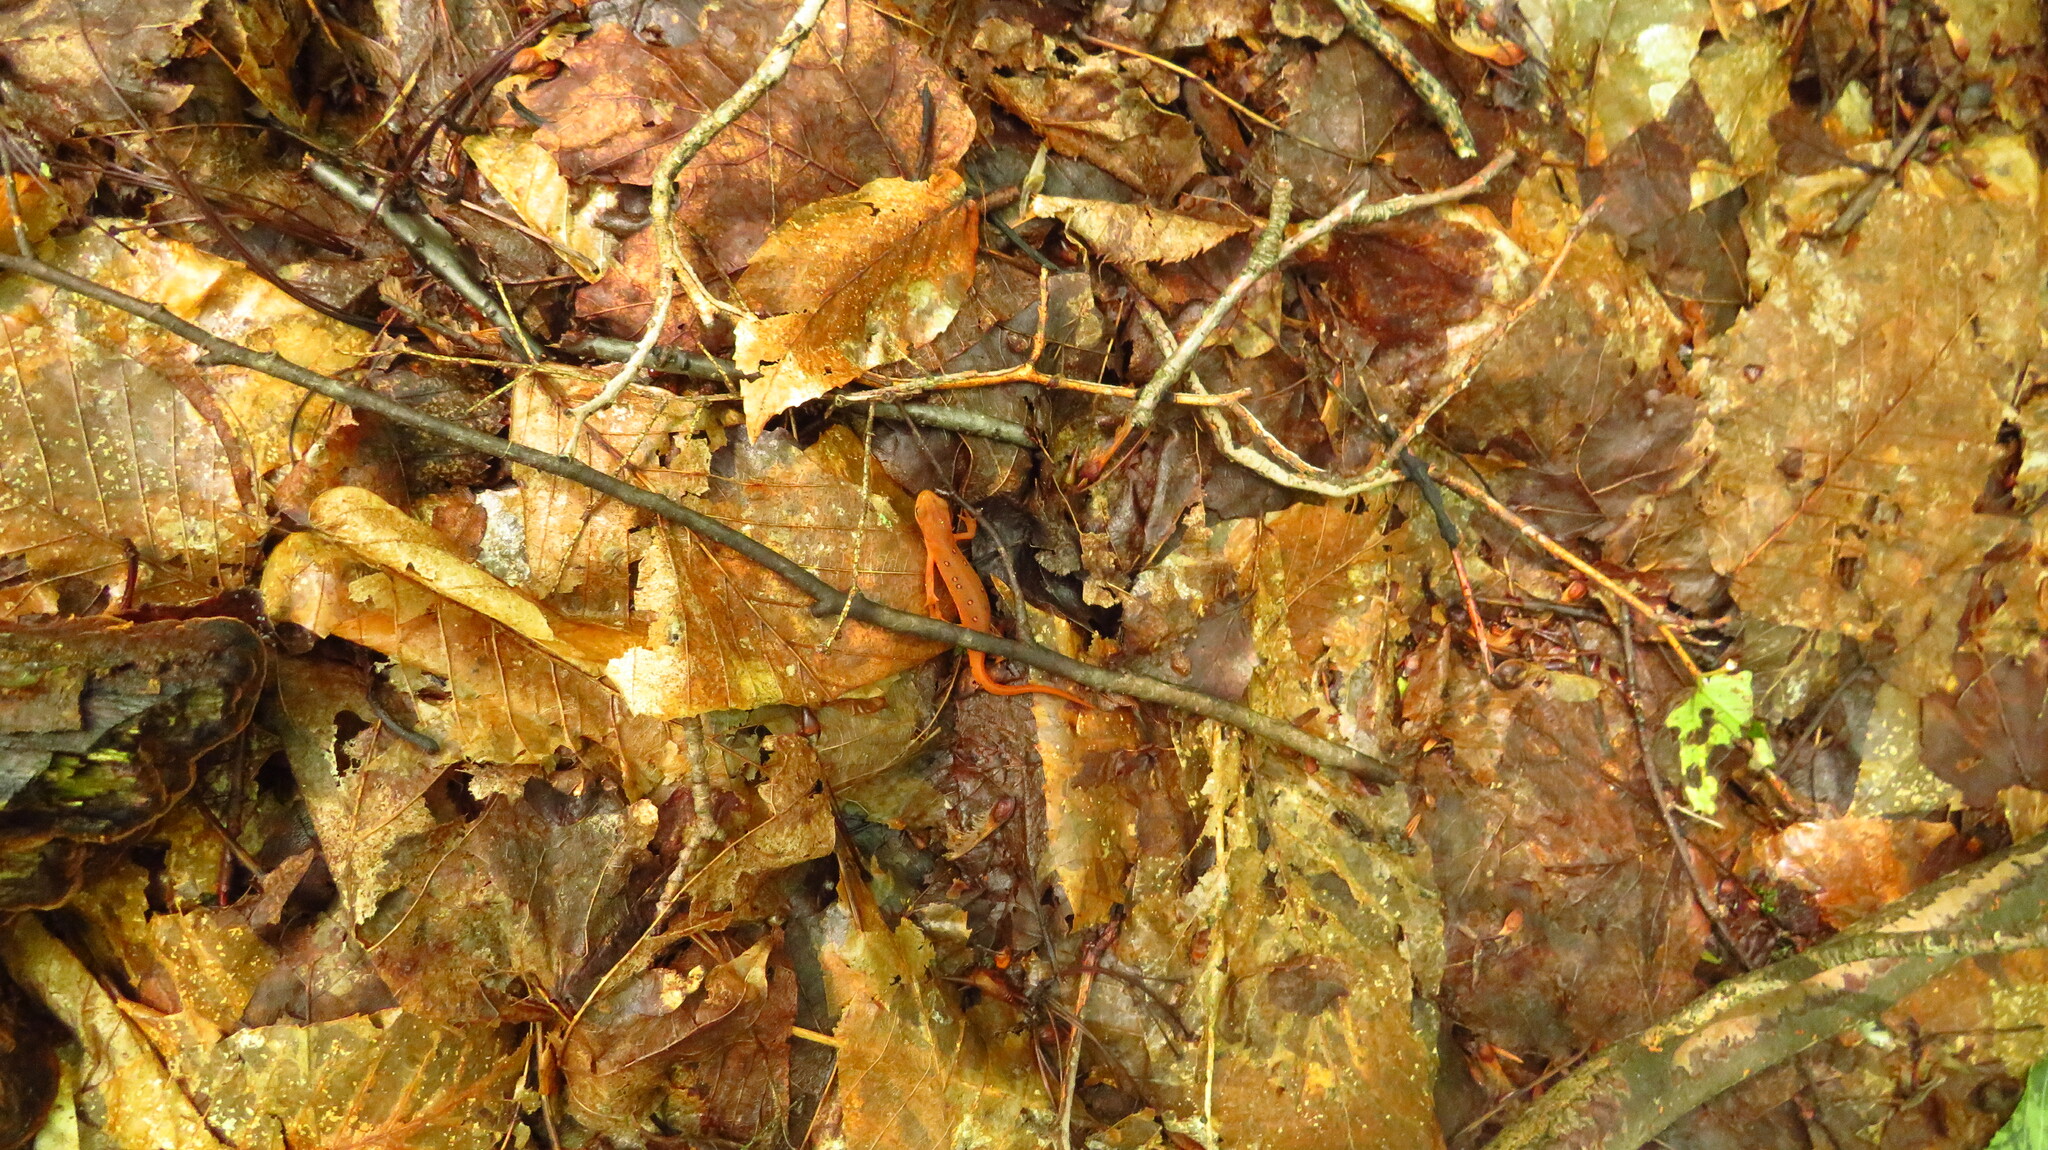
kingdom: Animalia
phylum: Chordata
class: Amphibia
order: Caudata
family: Salamandridae
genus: Notophthalmus
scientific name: Notophthalmus viridescens
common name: Eastern newt
